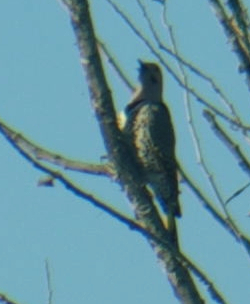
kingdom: Animalia
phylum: Chordata
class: Aves
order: Piciformes
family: Picidae
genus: Colaptes
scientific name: Colaptes auratus
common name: Northern flicker
